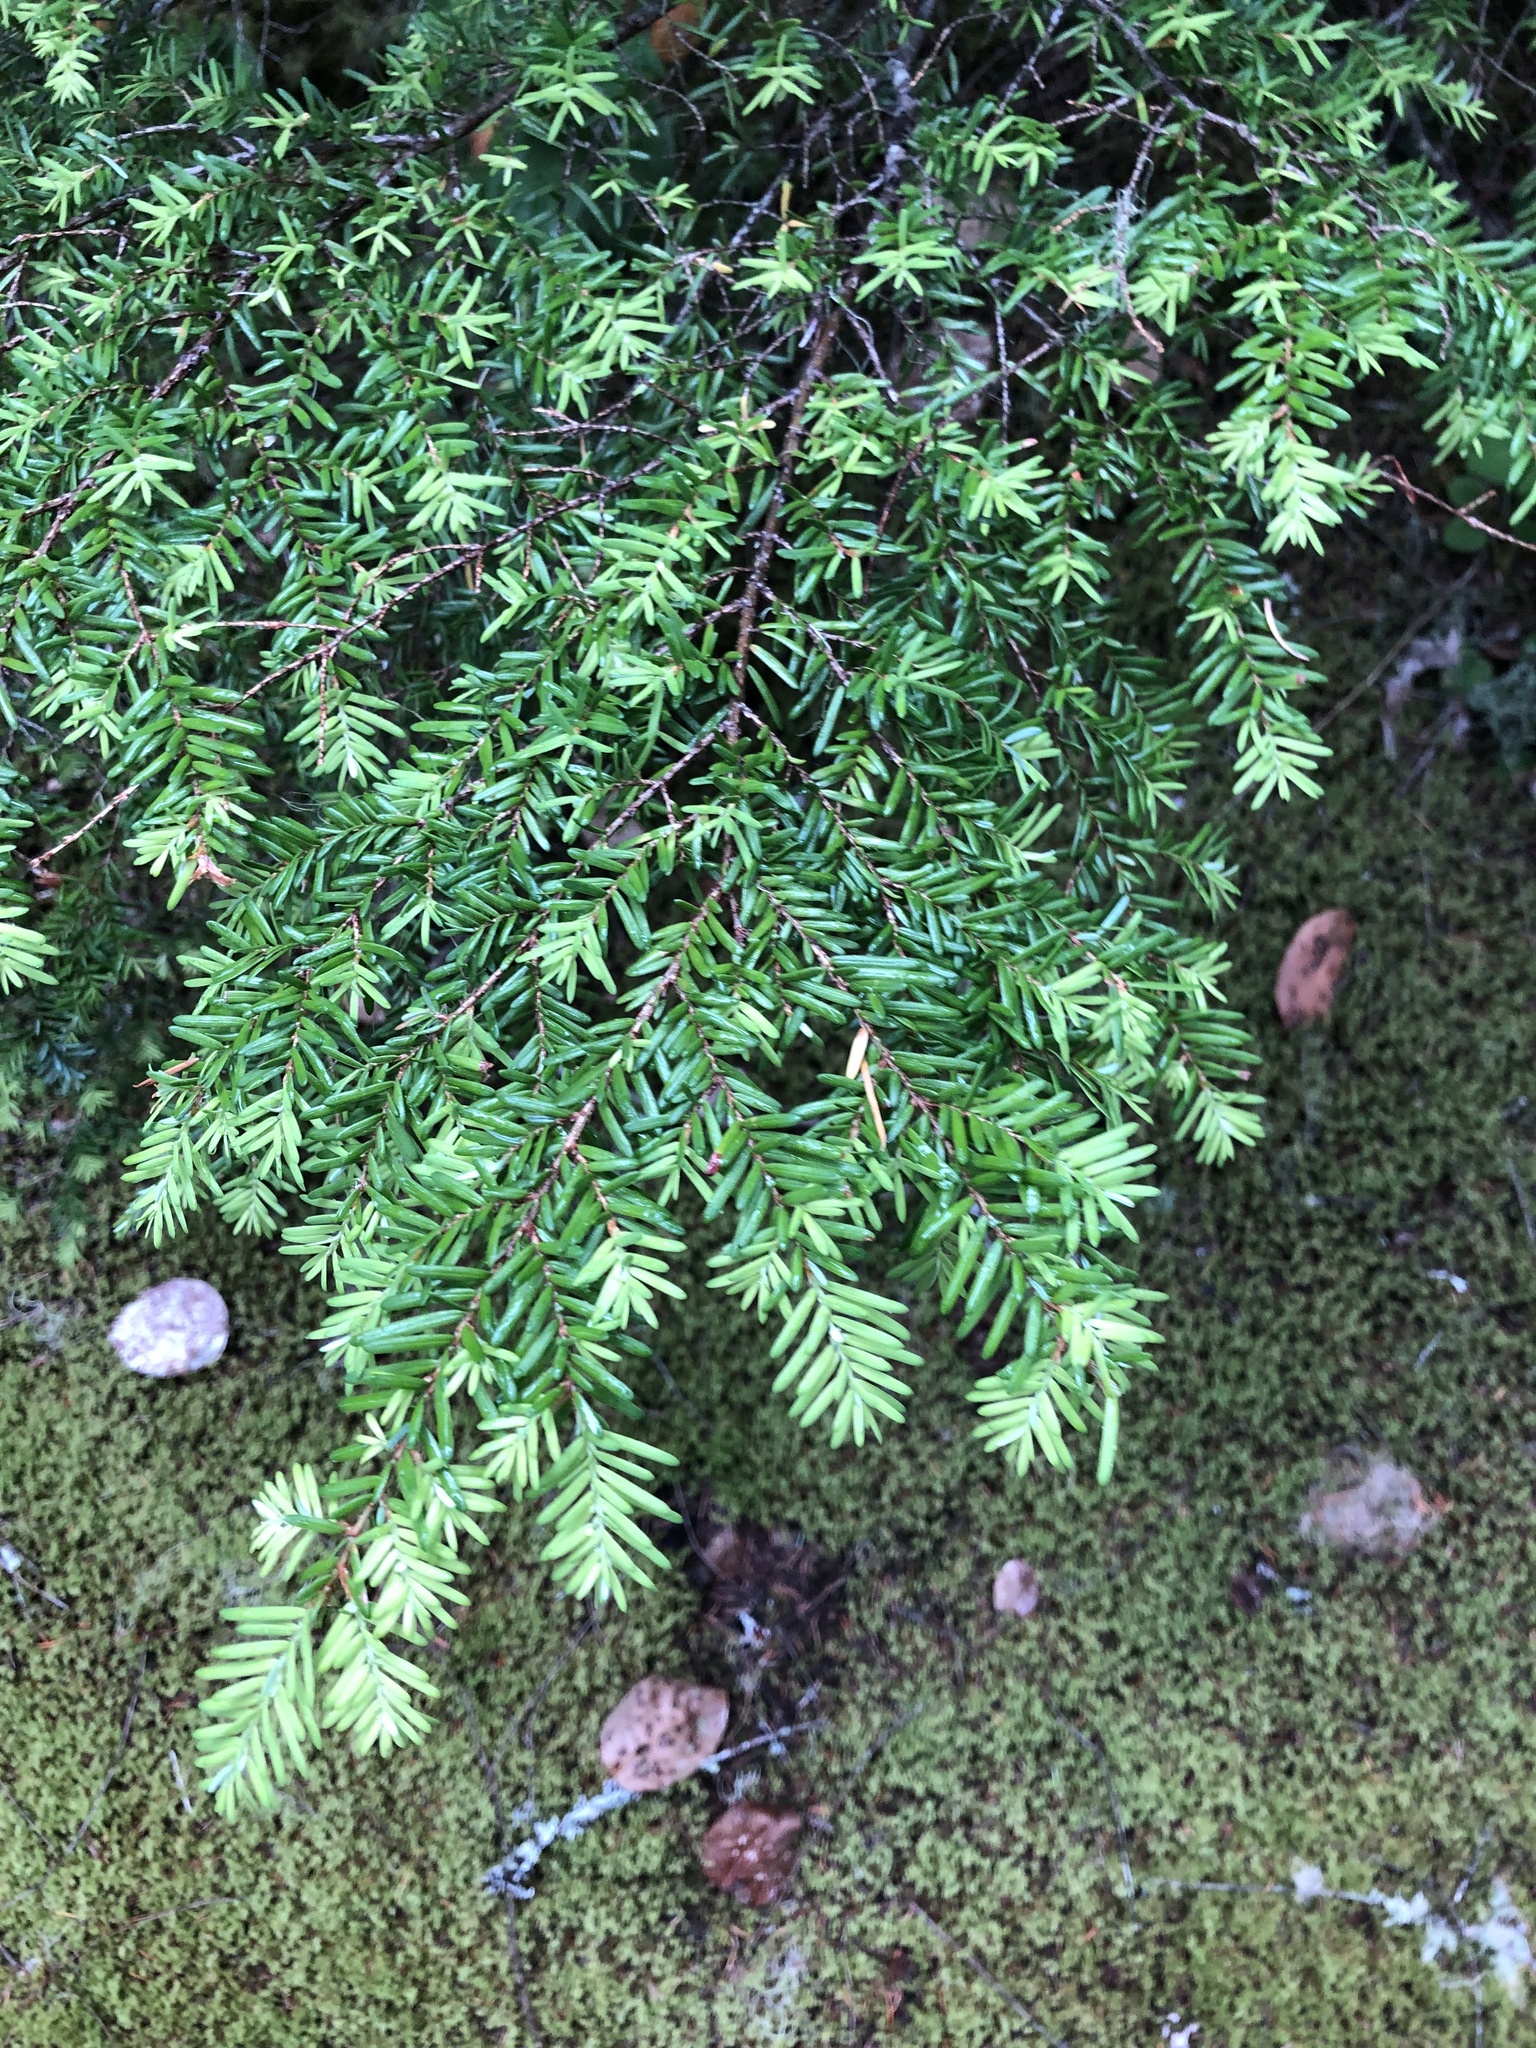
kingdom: Plantae
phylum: Tracheophyta
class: Pinopsida
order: Pinales
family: Pinaceae
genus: Tsuga
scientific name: Tsuga heterophylla
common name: Western hemlock
